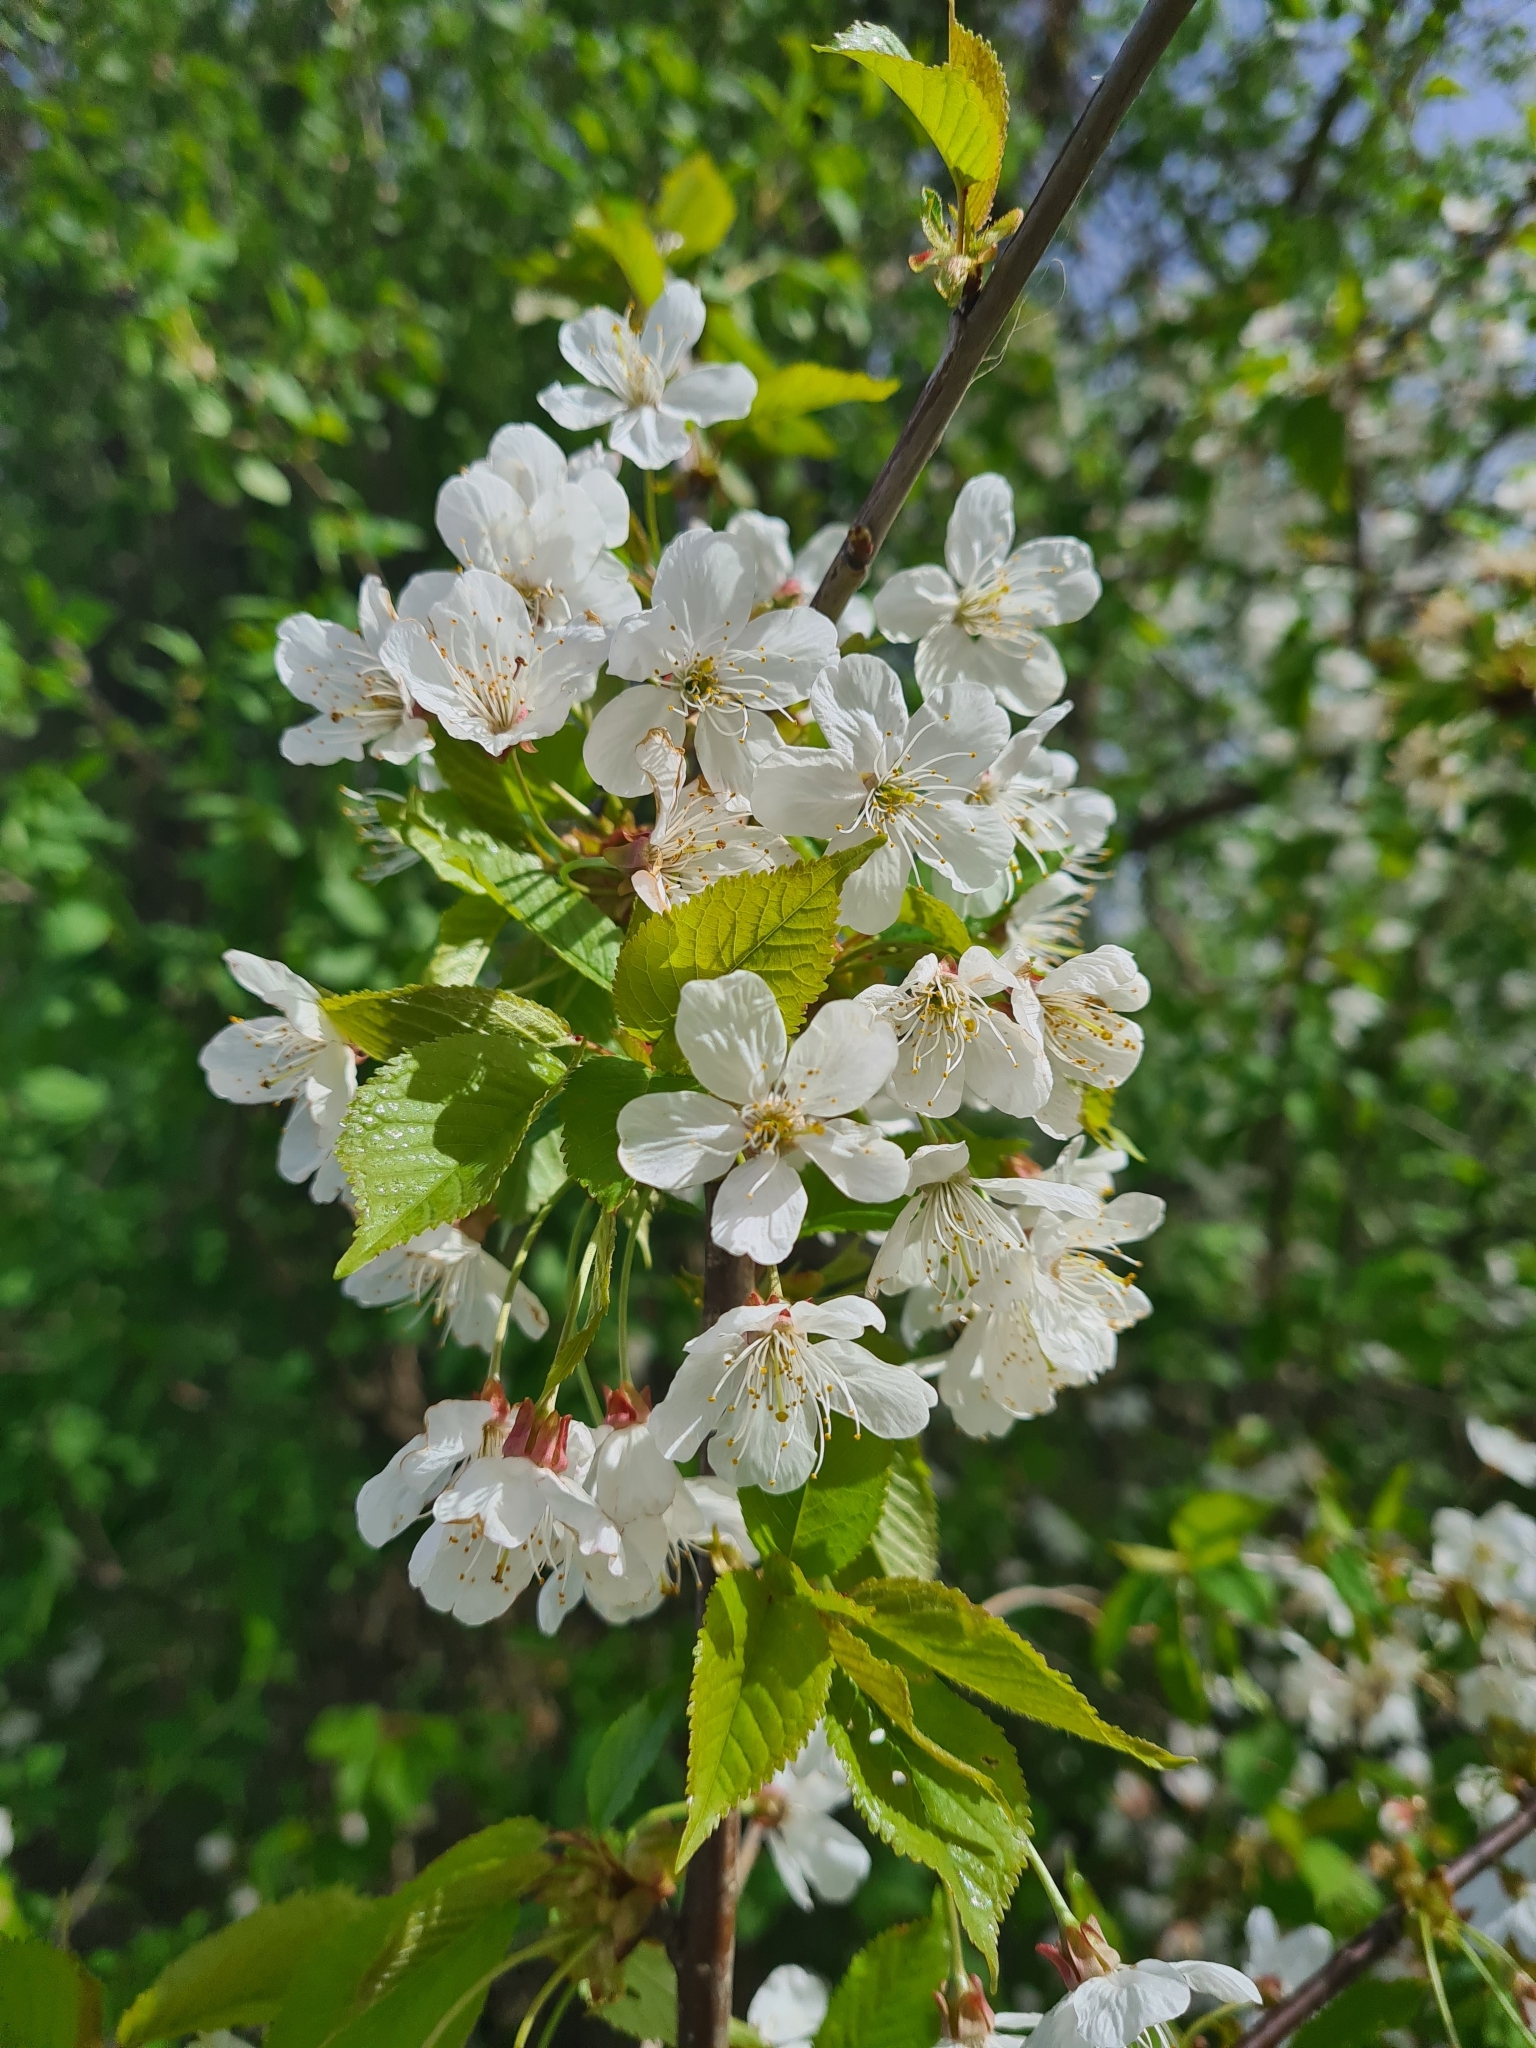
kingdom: Plantae
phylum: Tracheophyta
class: Magnoliopsida
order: Rosales
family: Rosaceae
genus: Prunus
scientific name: Prunus avium
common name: Sweet cherry
